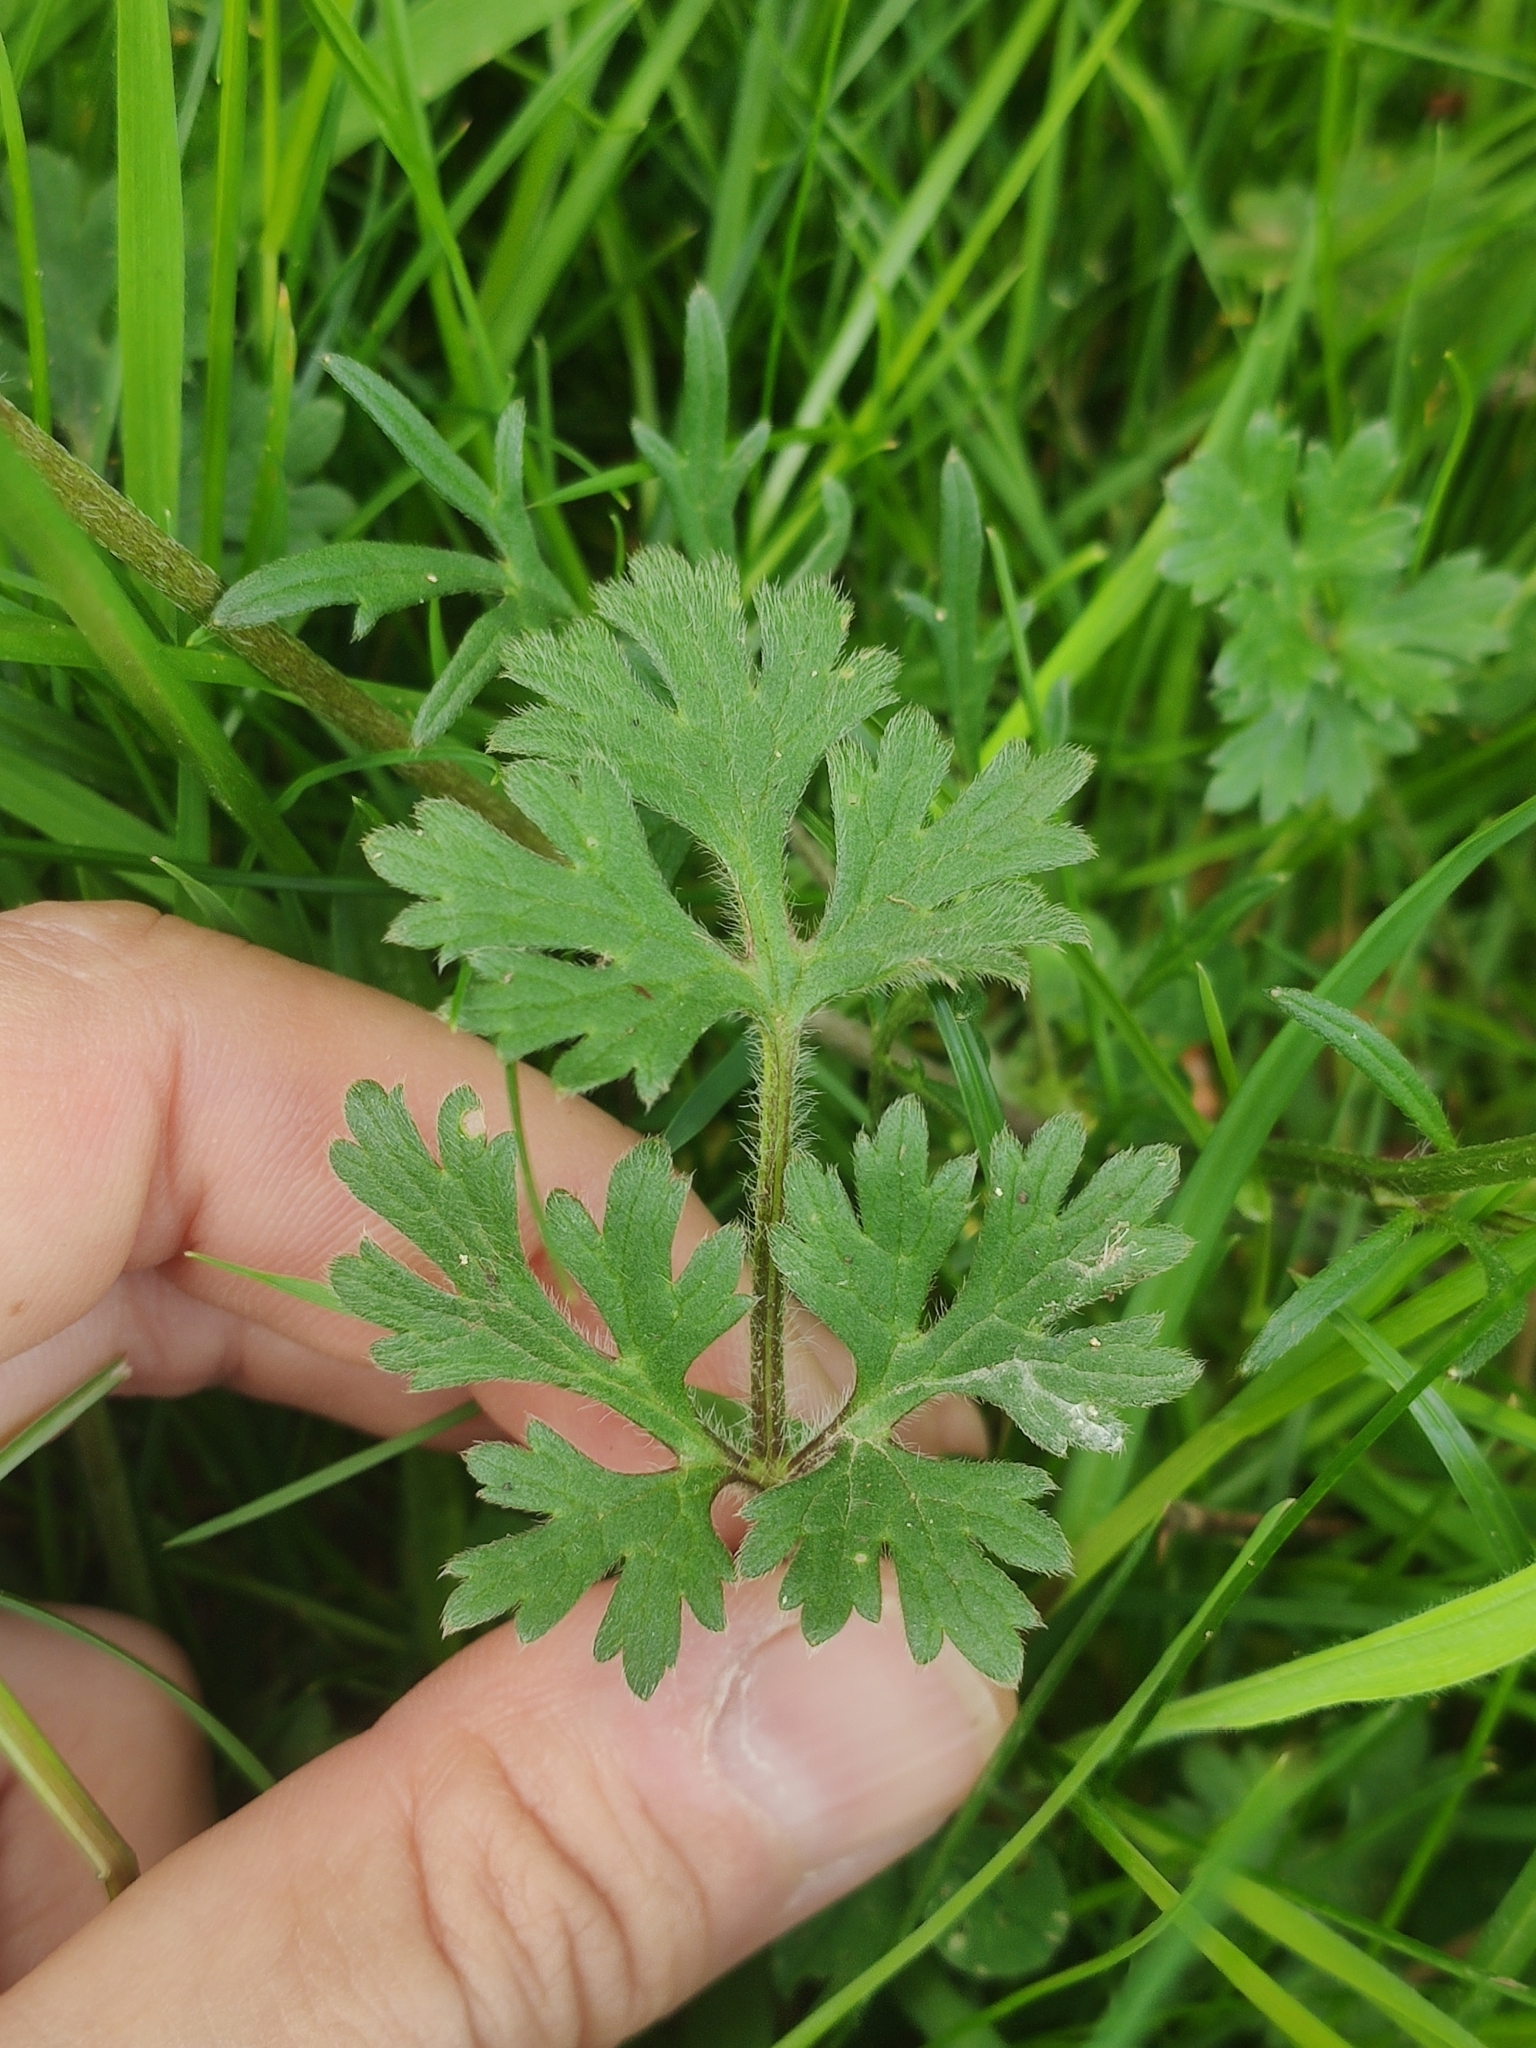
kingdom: Plantae
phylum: Tracheophyta
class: Magnoliopsida
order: Ranunculales
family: Ranunculaceae
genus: Ranunculus
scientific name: Ranunculus bulbosus
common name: Bulbous buttercup
